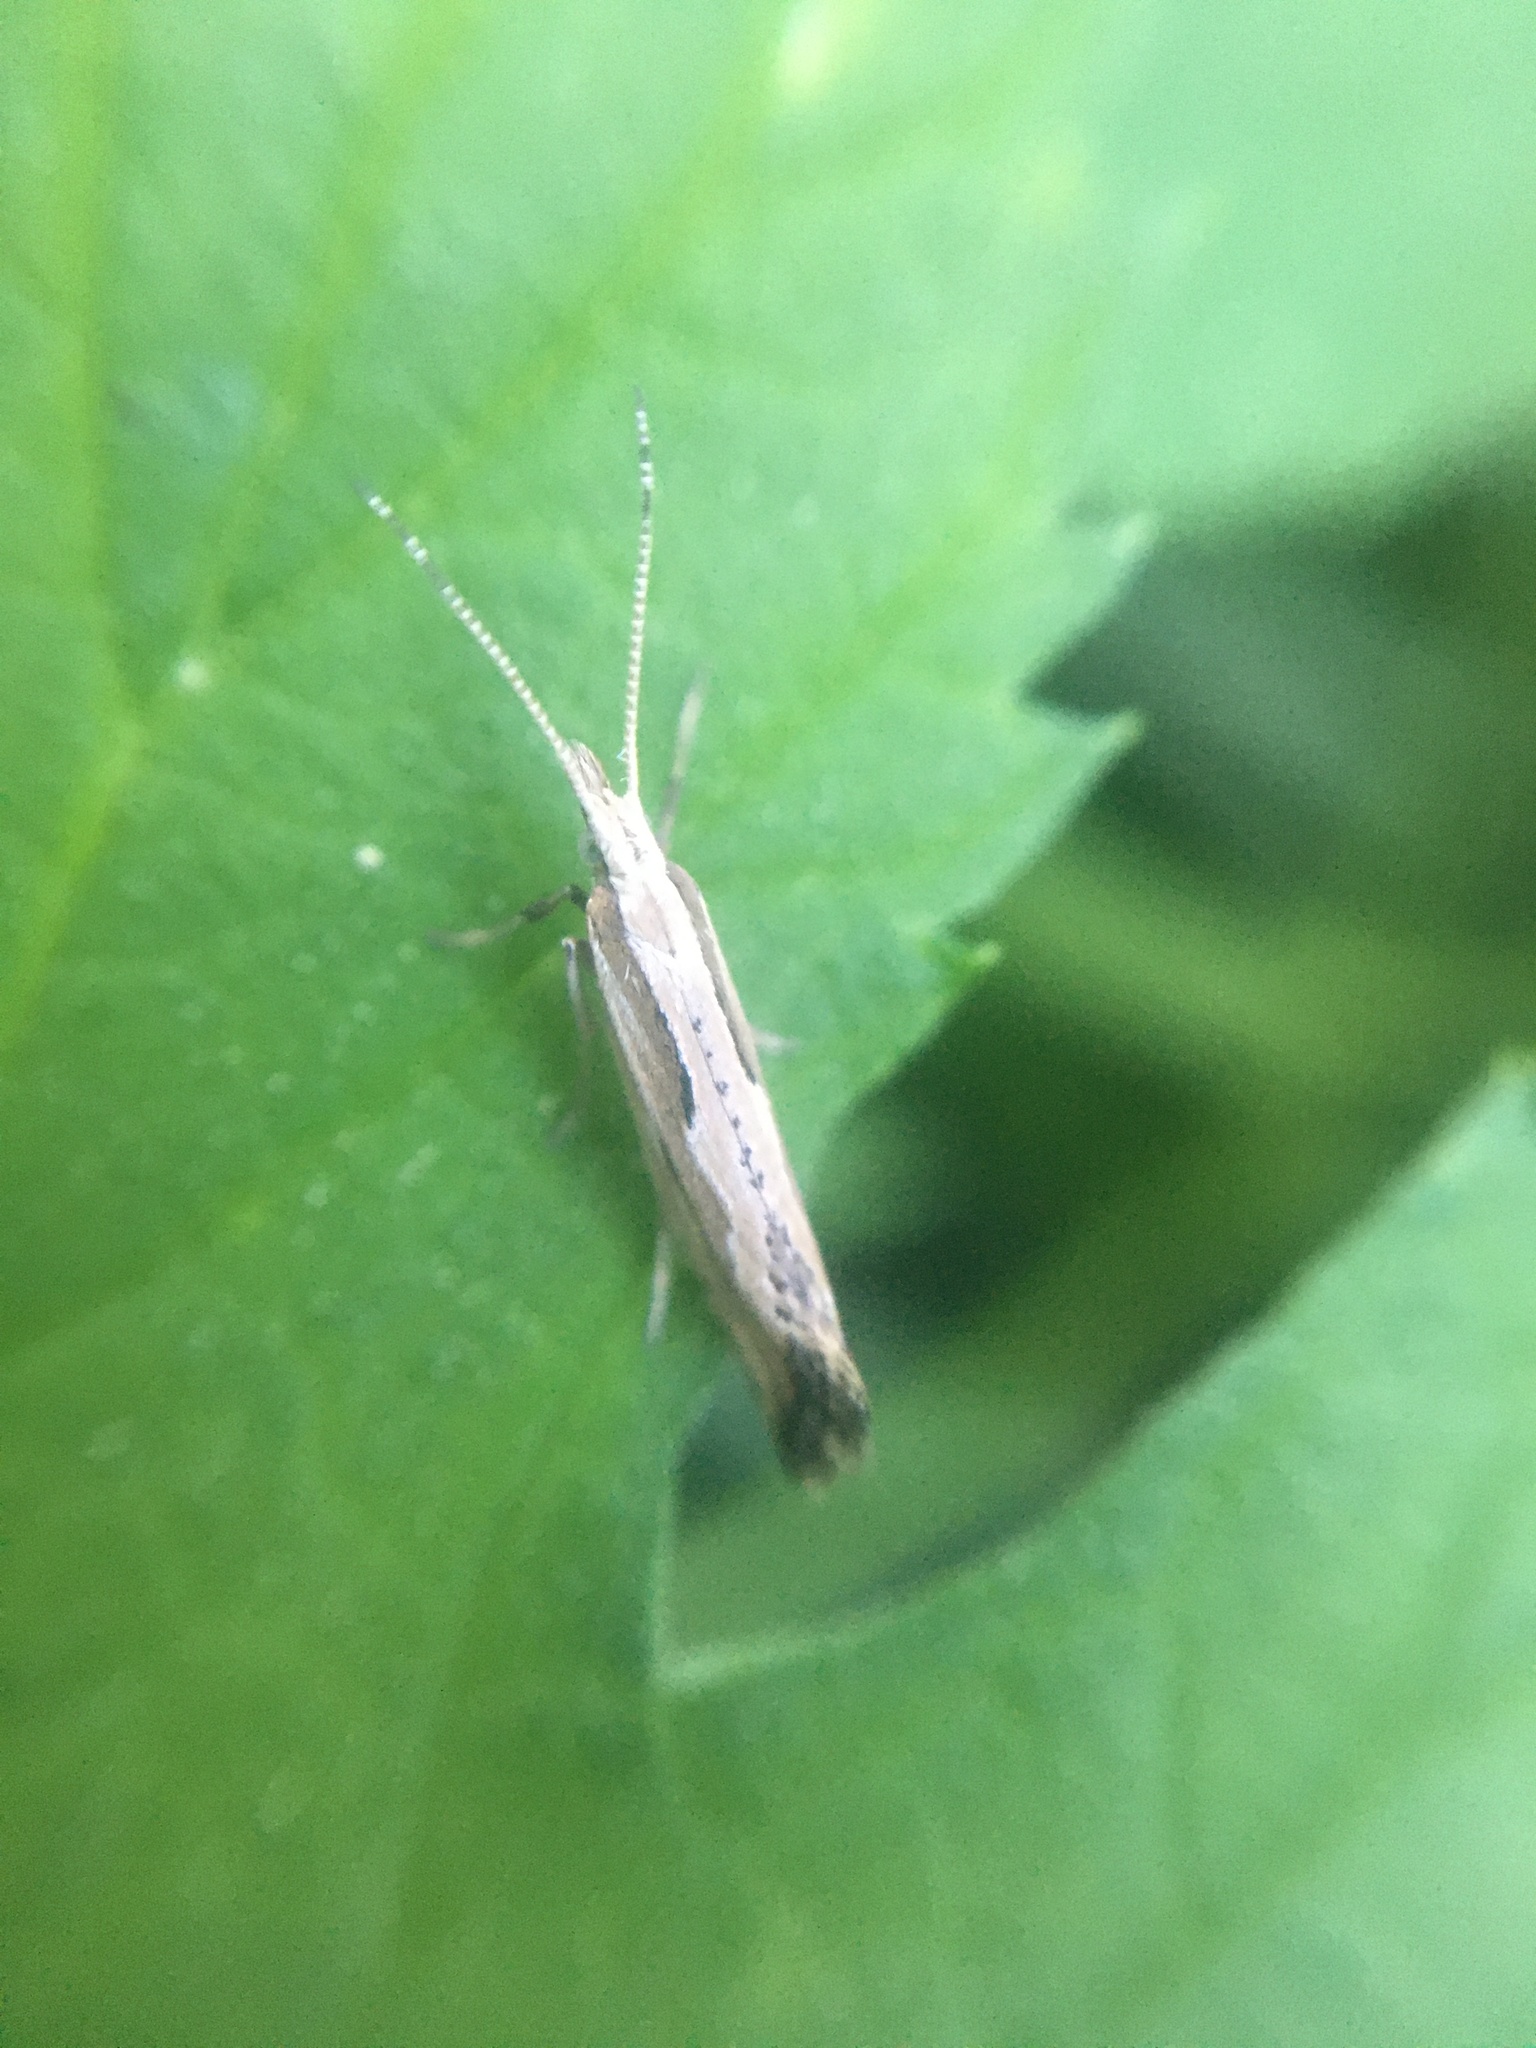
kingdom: Animalia
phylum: Arthropoda
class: Insecta
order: Lepidoptera
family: Plutellidae
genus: Plutella
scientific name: Plutella porrectella
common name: Dame's rocket moth
